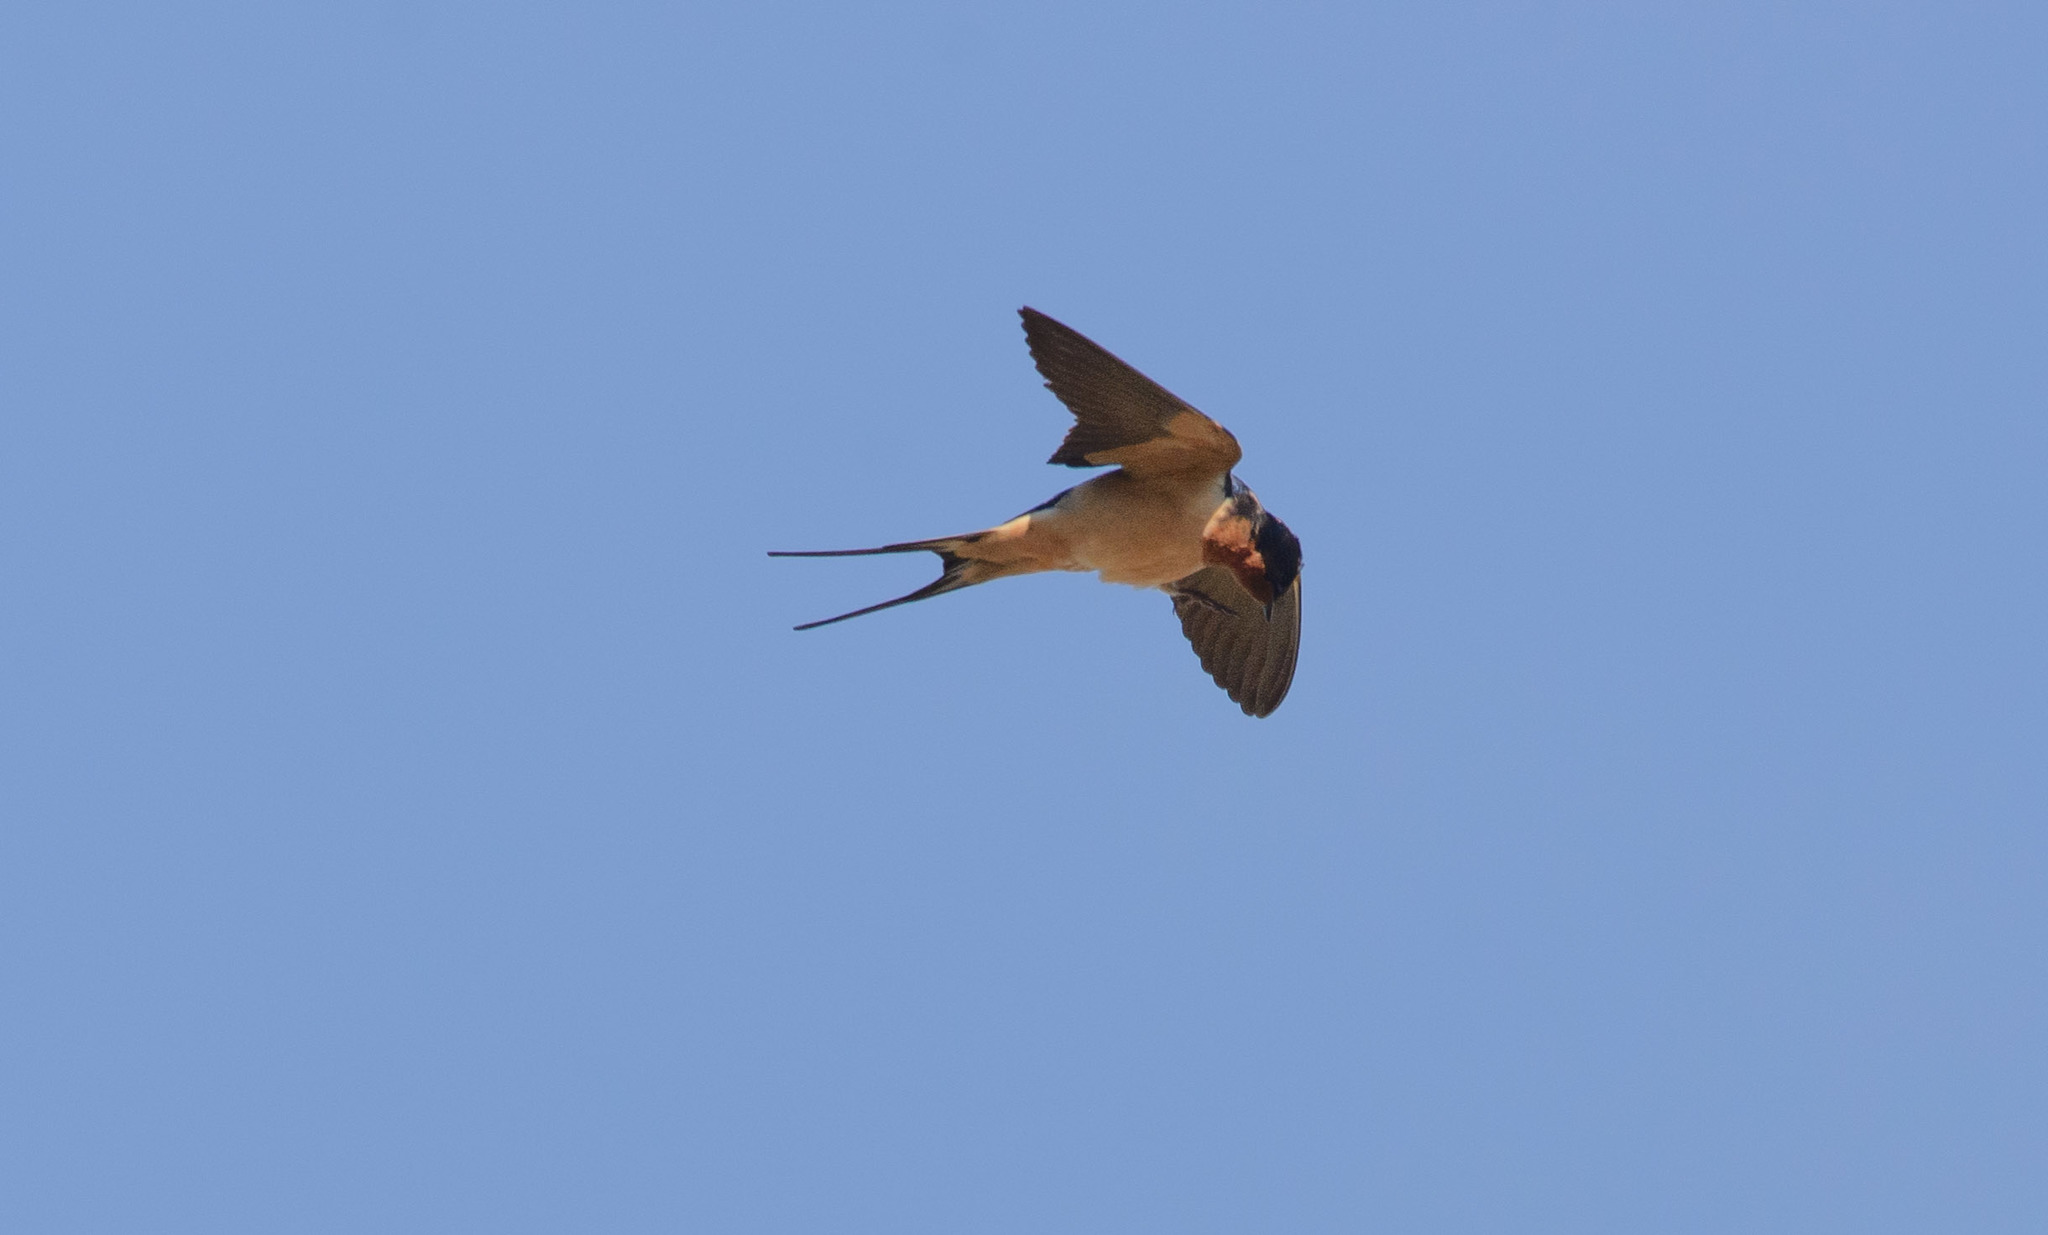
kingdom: Animalia
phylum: Chordata
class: Aves
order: Passeriformes
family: Hirundinidae
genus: Hirundo
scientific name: Hirundo rustica
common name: Barn swallow
